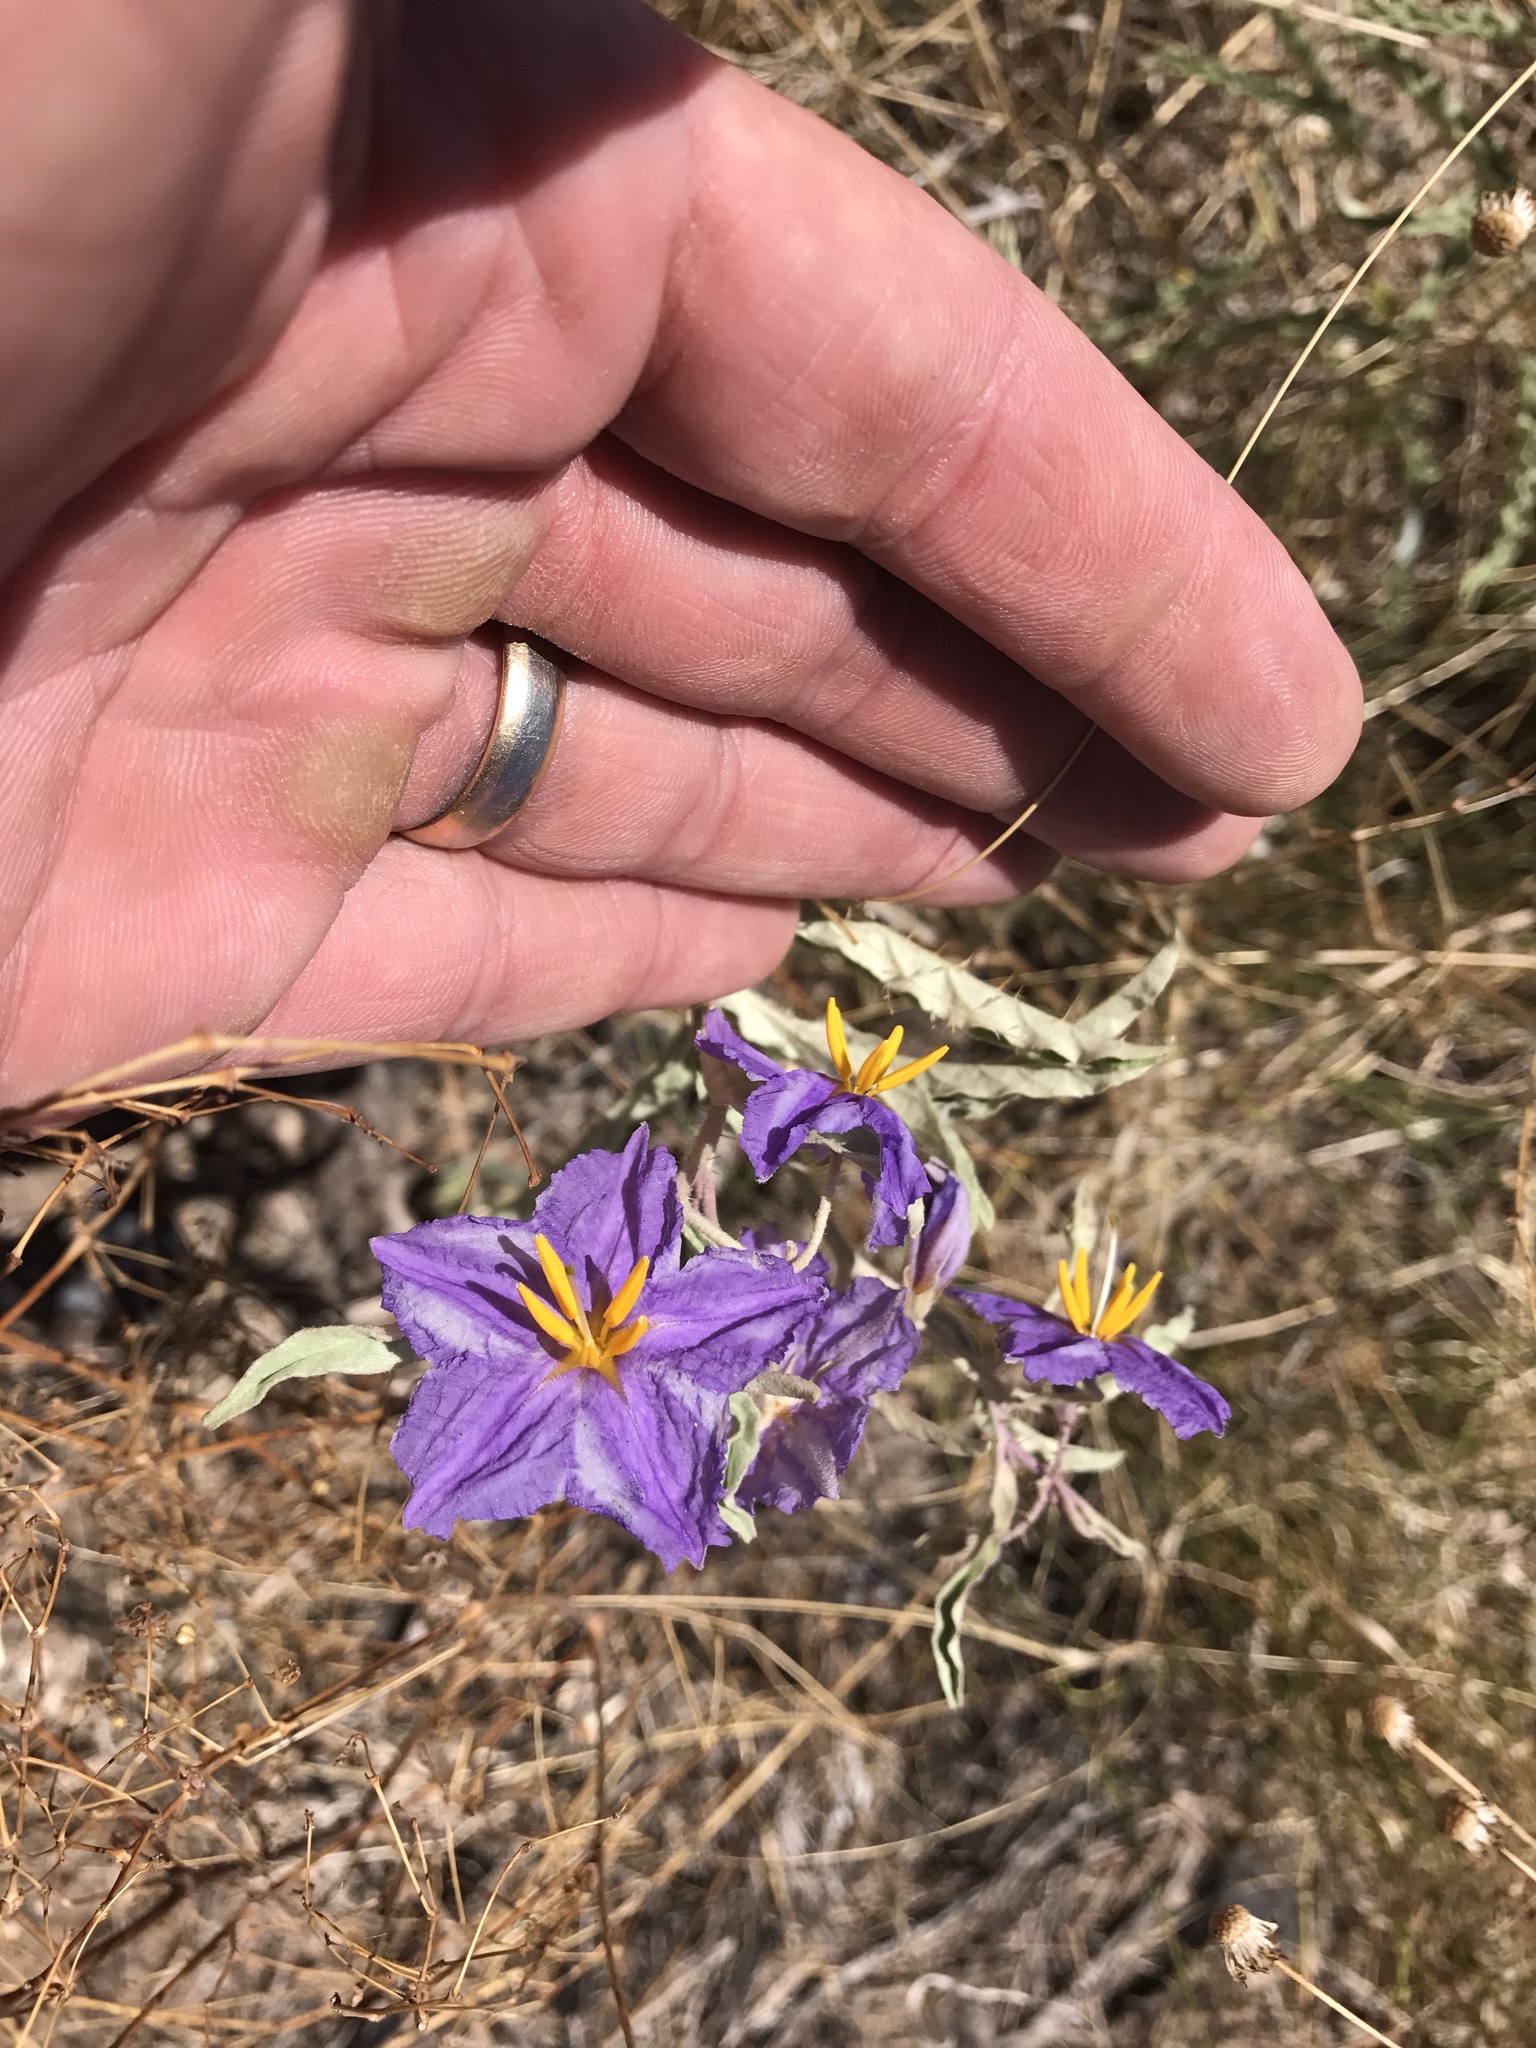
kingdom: Plantae
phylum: Tracheophyta
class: Magnoliopsida
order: Solanales
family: Solanaceae
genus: Solanum
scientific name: Solanum elaeagnifolium
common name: Silverleaf nightshade
